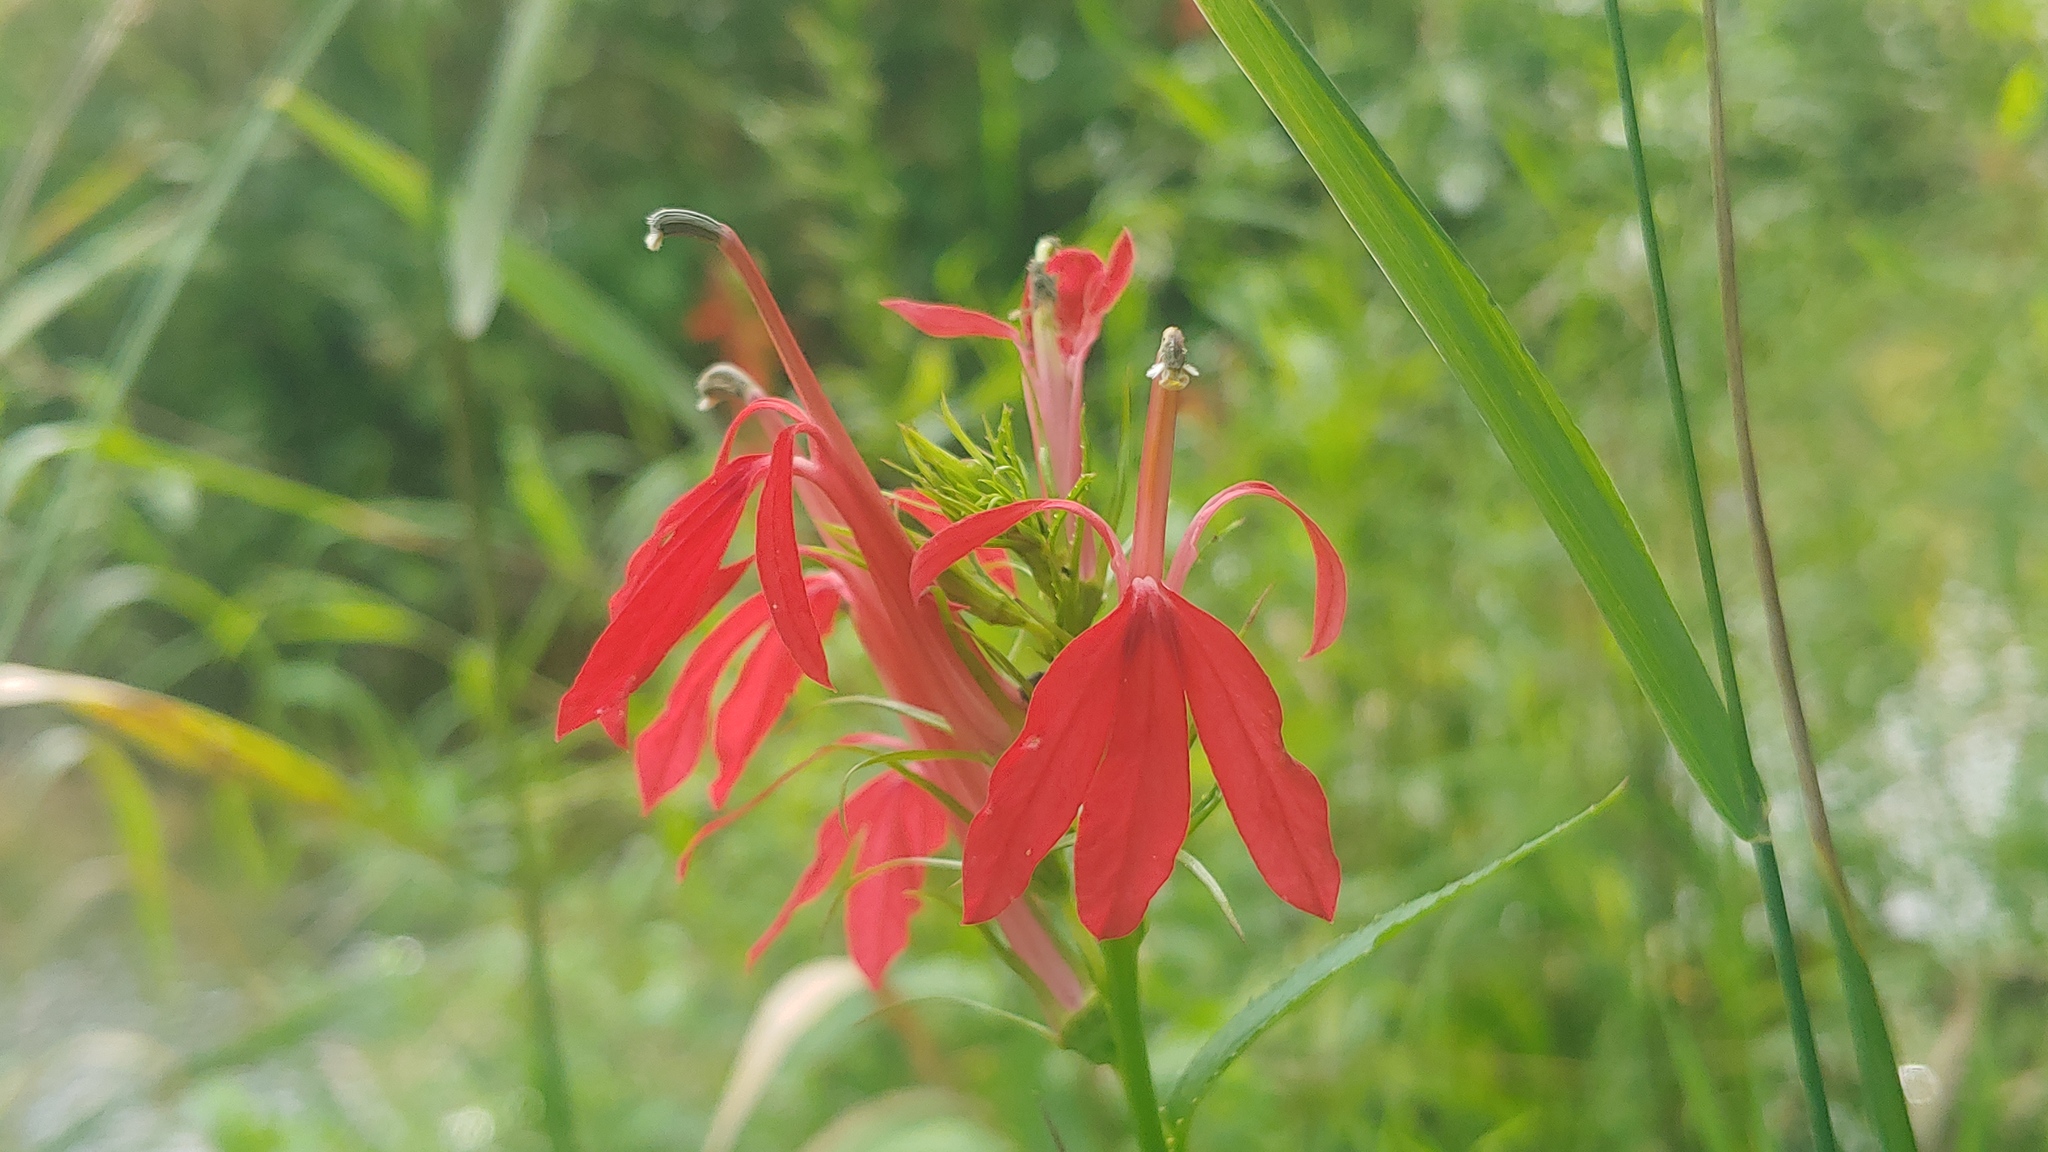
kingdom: Plantae
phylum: Tracheophyta
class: Magnoliopsida
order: Asterales
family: Campanulaceae
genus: Lobelia
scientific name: Lobelia cardinalis
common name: Cardinal flower
